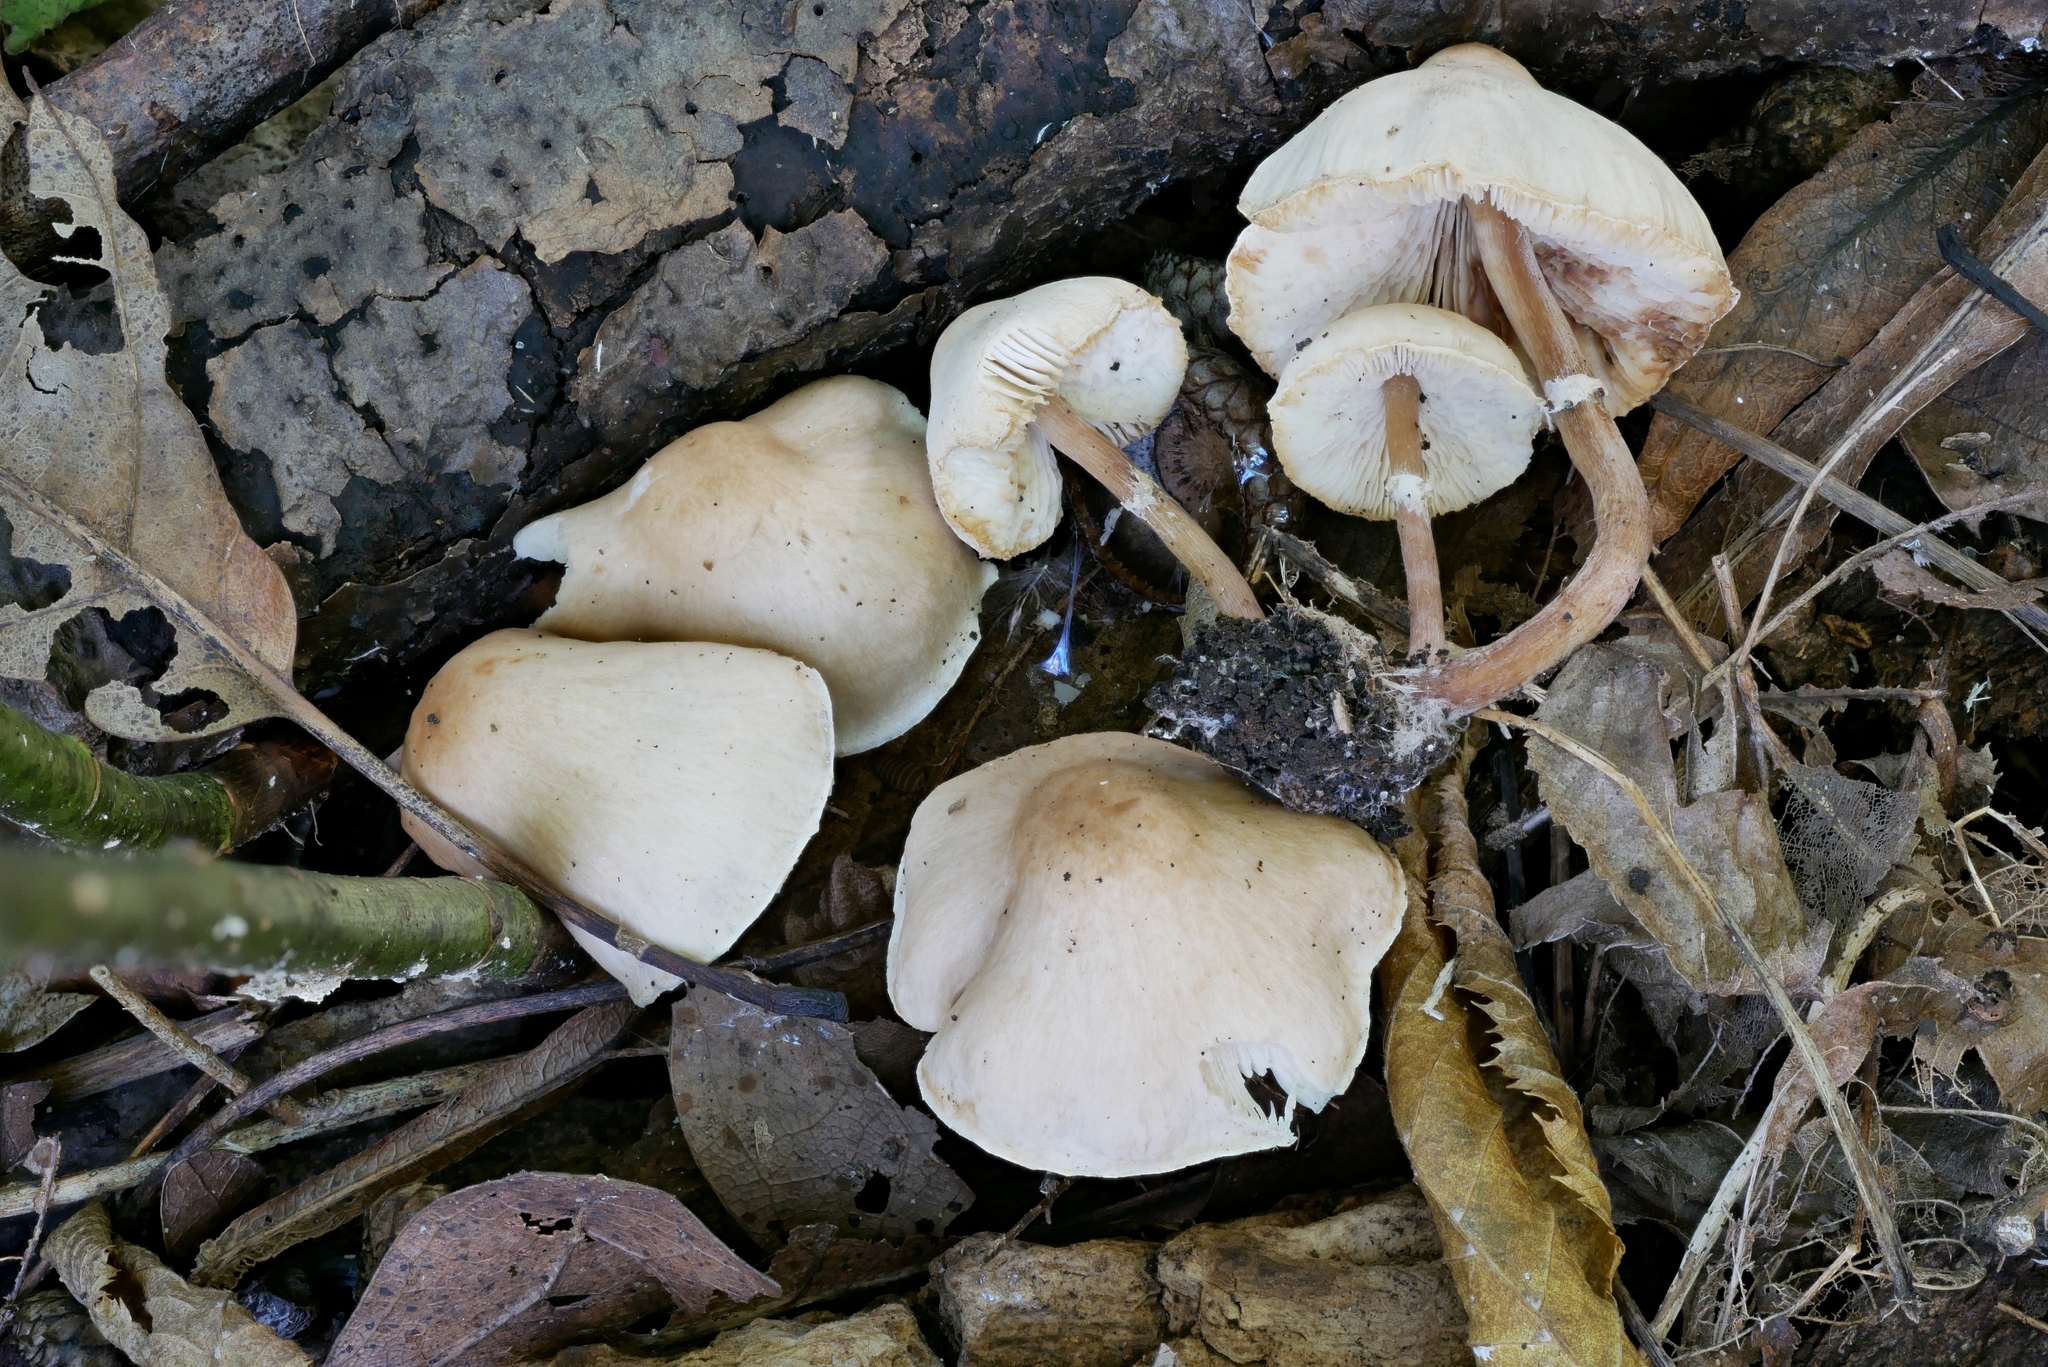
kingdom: Fungi
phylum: Basidiomycota
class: Agaricomycetes
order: Agaricales
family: Agaricaceae
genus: Lepiota
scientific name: Lepiota neophana
